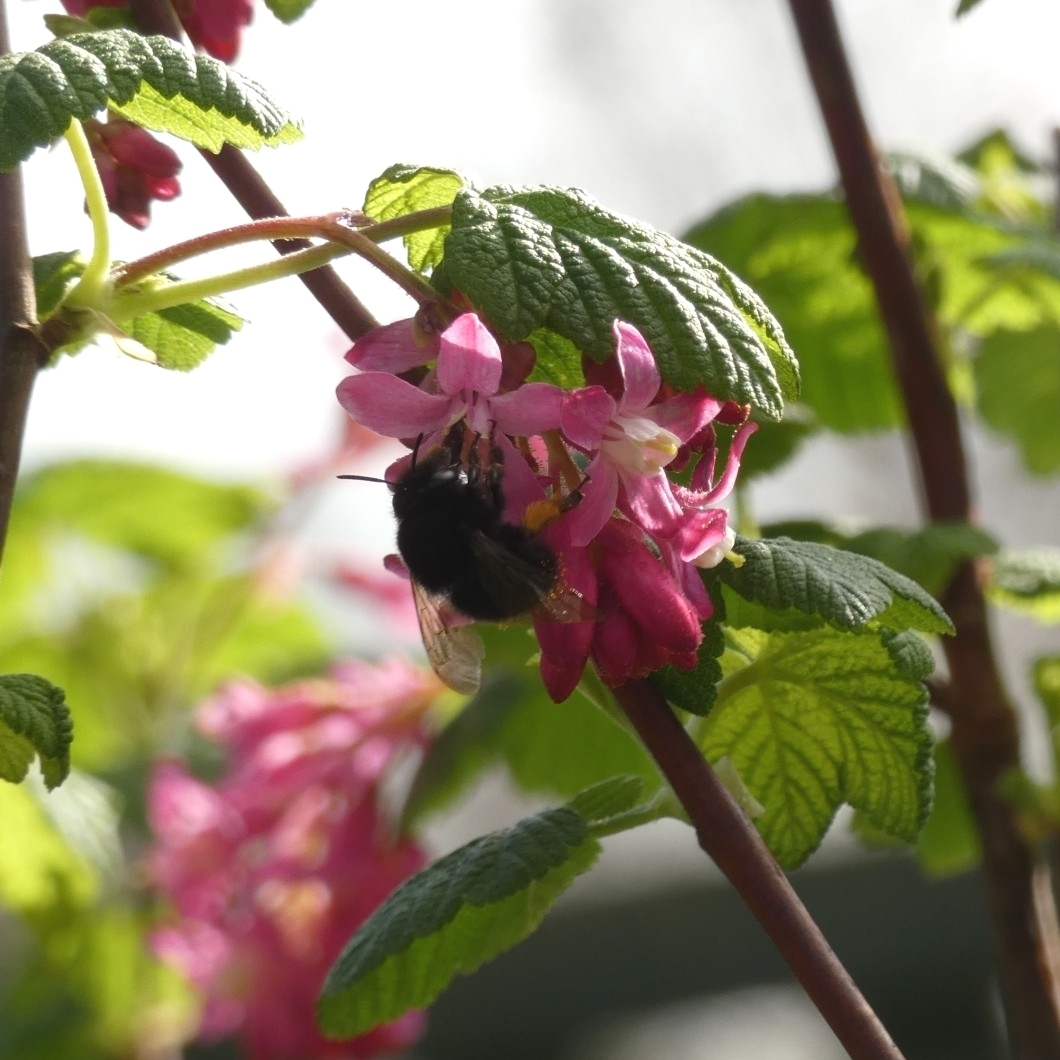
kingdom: Animalia
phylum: Arthropoda
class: Insecta
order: Hymenoptera
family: Apidae
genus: Anthophora
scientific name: Anthophora plumipes
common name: Hairy-footed flower bee
